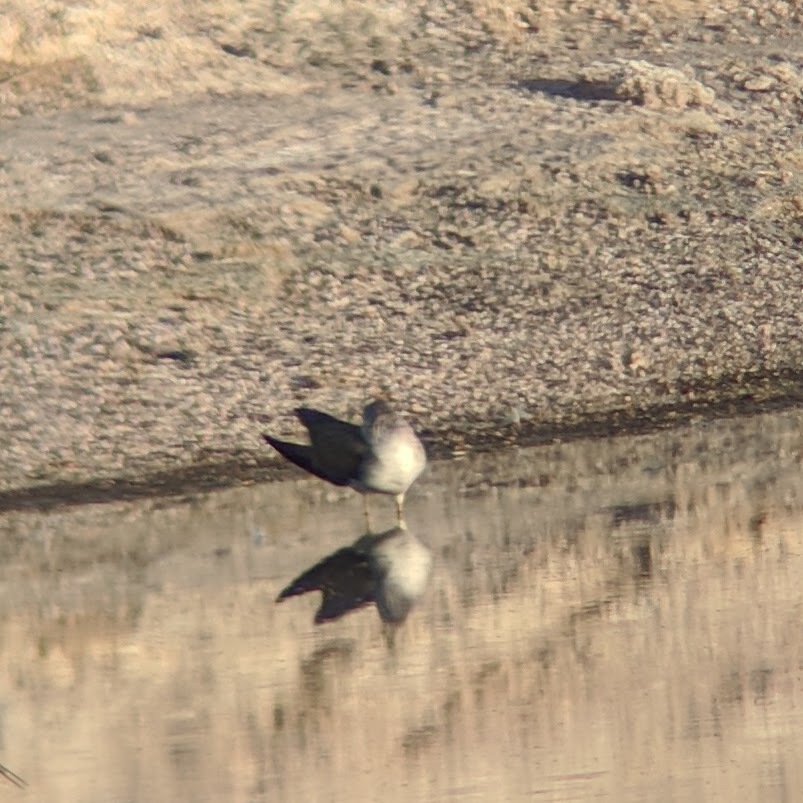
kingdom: Animalia
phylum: Chordata
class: Aves
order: Charadriiformes
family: Scolopacidae
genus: Tringa
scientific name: Tringa melanoleuca
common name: Greater yellowlegs
